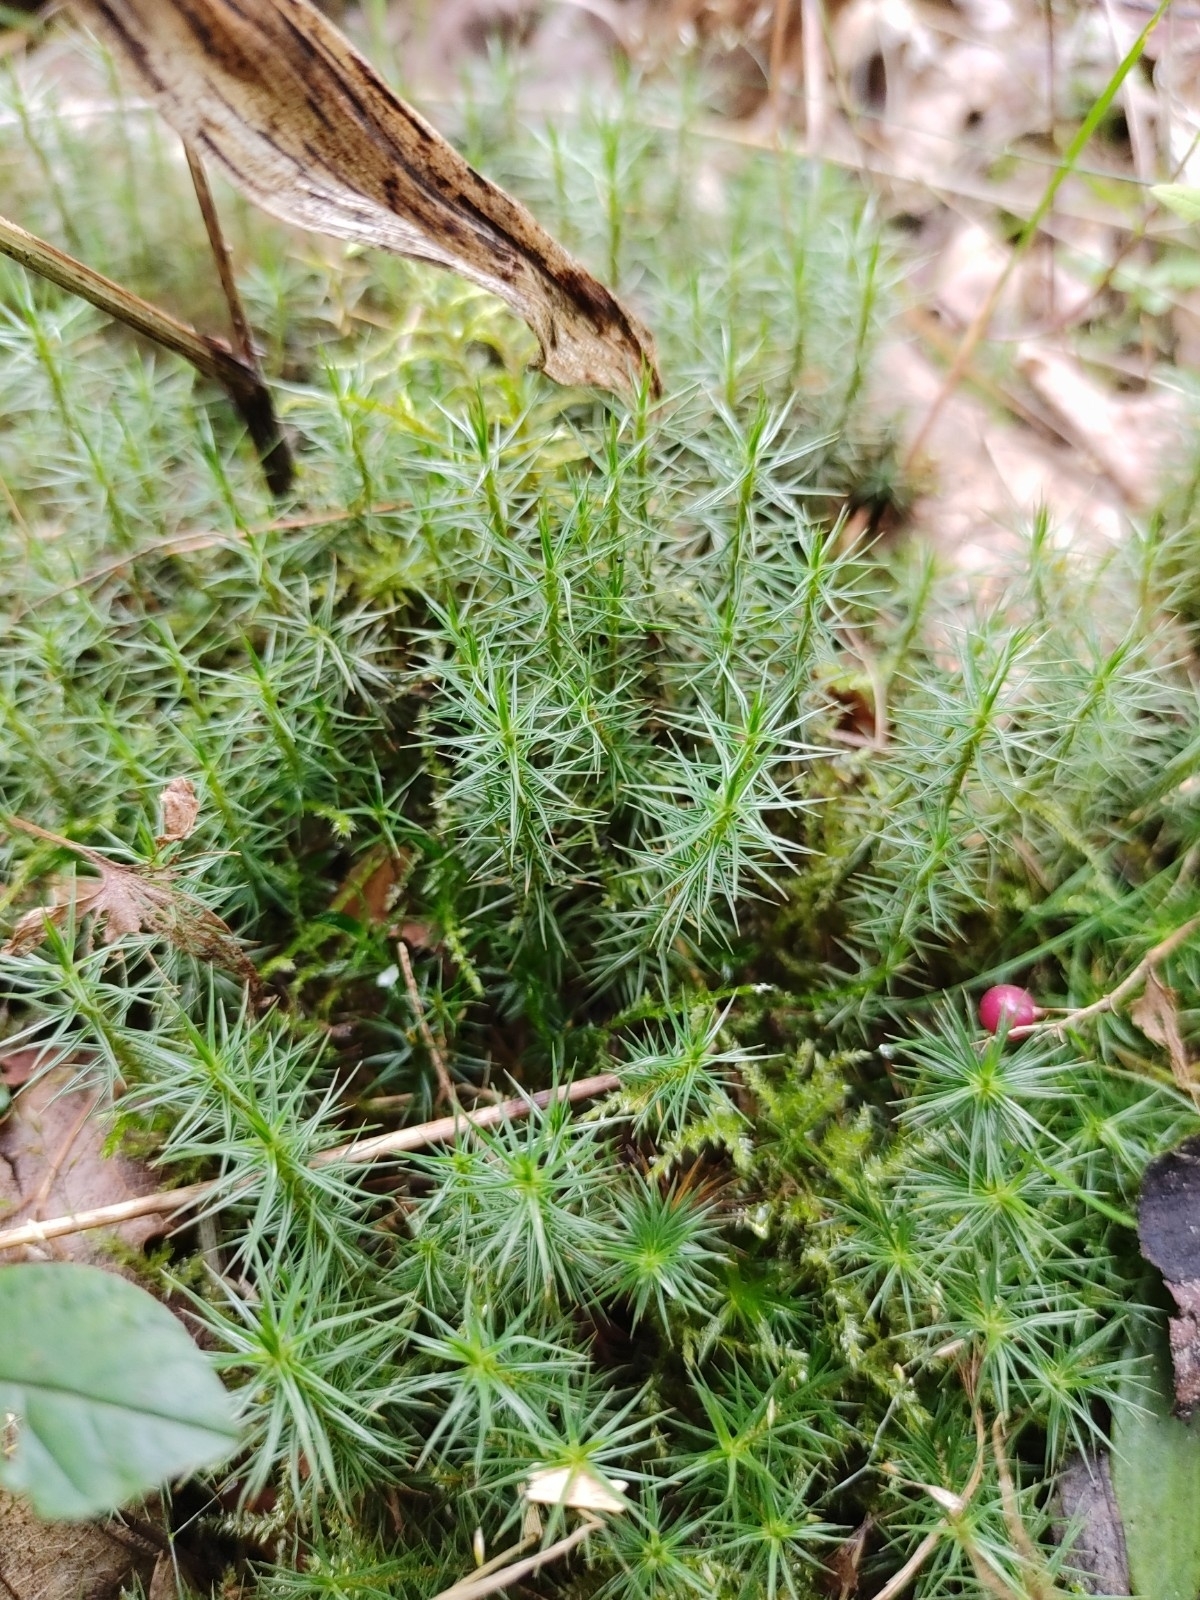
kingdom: Plantae
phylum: Bryophyta
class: Polytrichopsida
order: Polytrichales
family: Polytrichaceae
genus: Polytrichum
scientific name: Polytrichum juniperinum
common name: Juniper haircap moss
